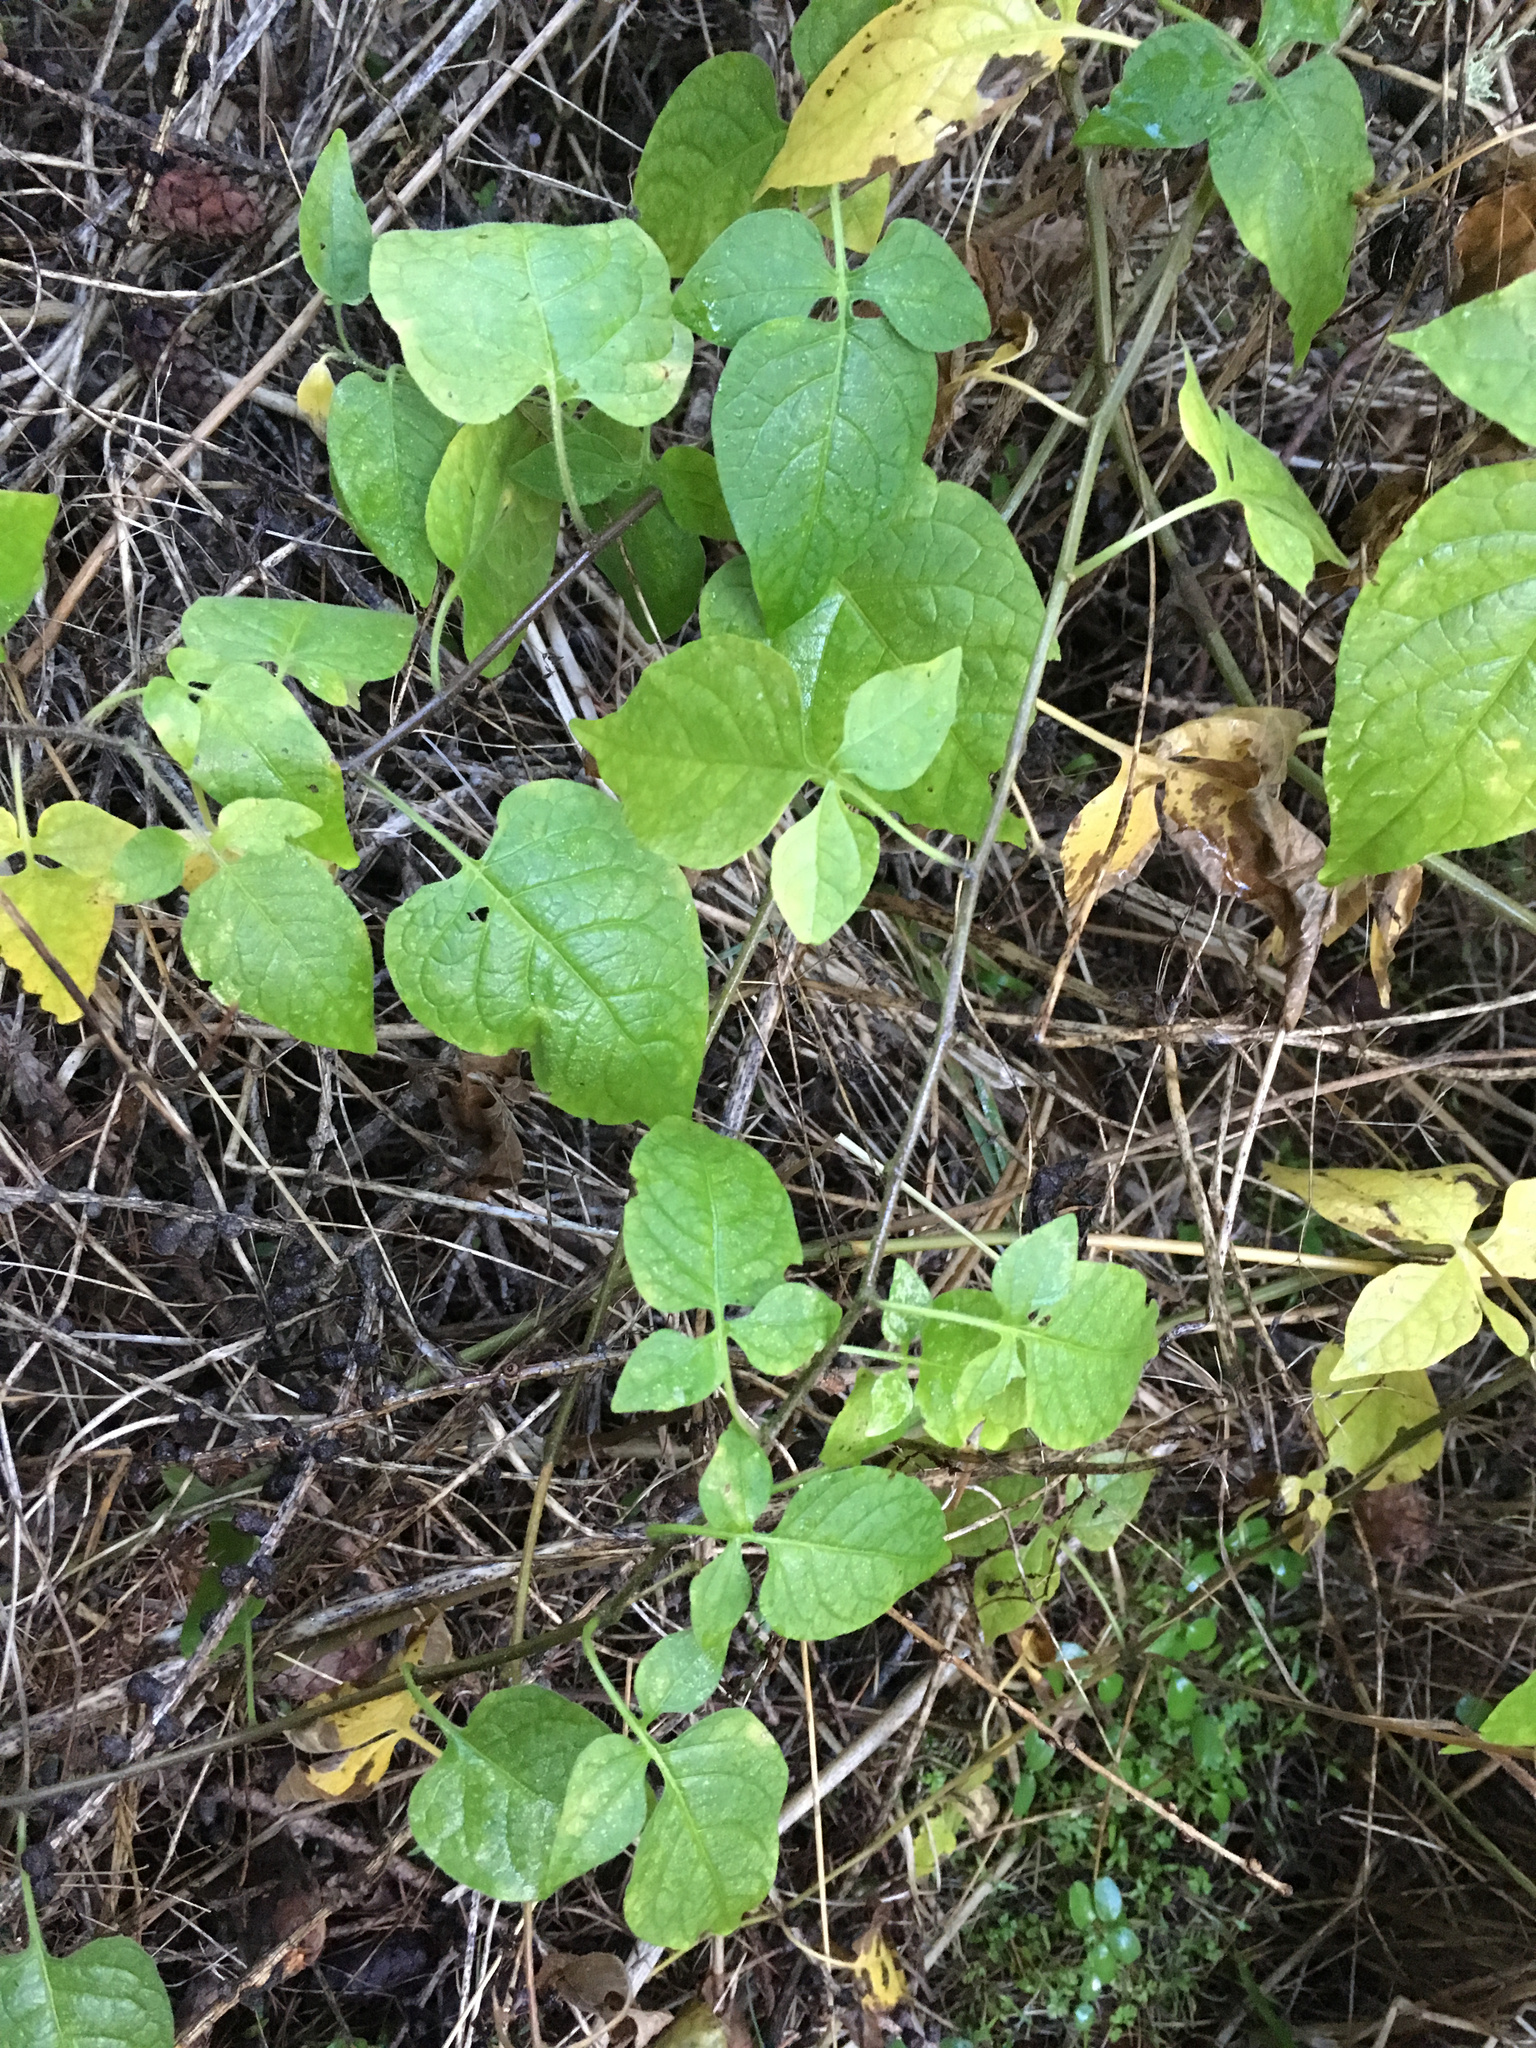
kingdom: Plantae
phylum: Tracheophyta
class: Magnoliopsida
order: Solanales
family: Solanaceae
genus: Solanum
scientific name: Solanum dulcamara
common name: Climbing nightshade
